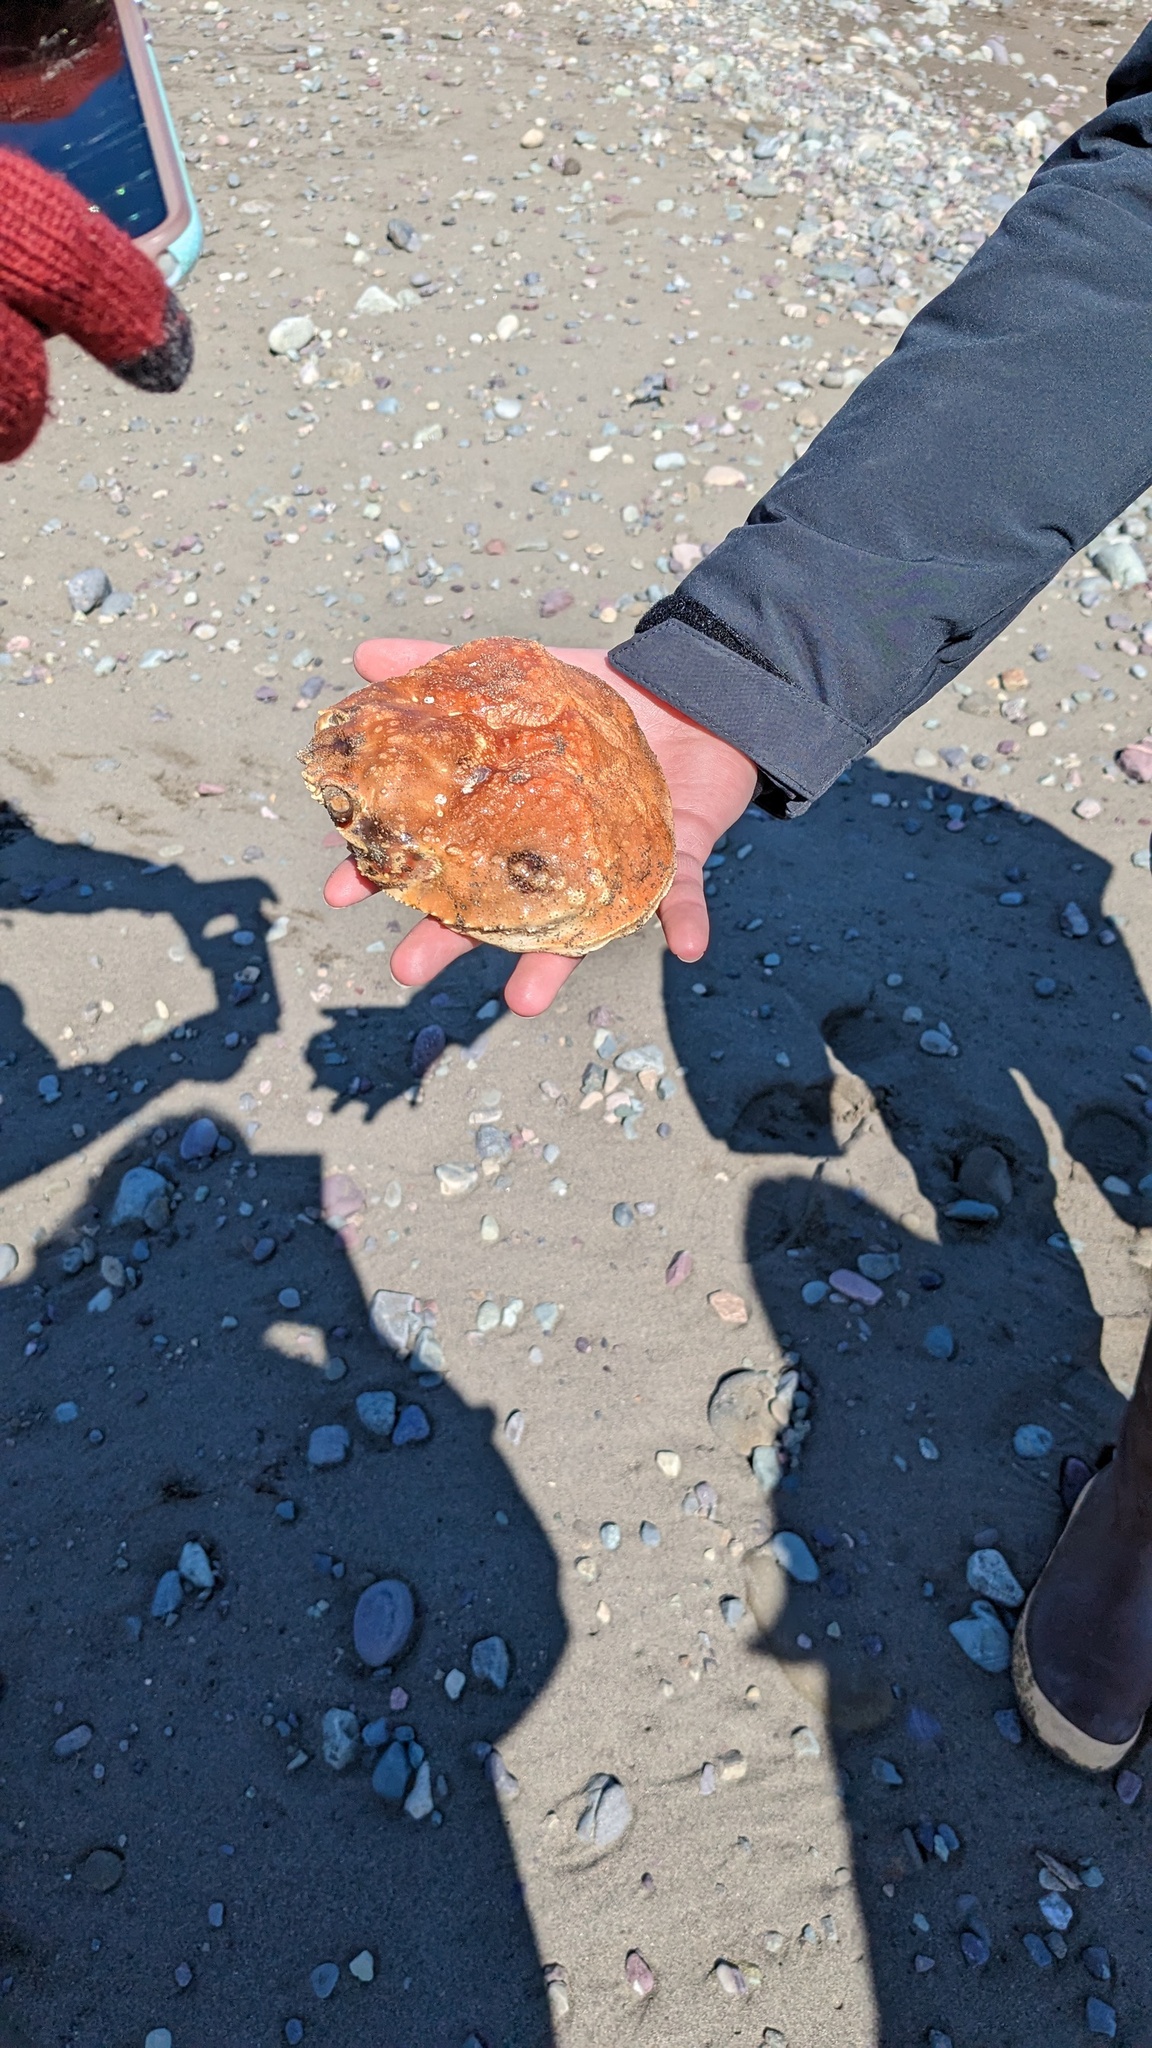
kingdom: Animalia
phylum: Arthropoda
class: Malacostraca
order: Decapoda
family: Oregoniidae
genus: Chionoecetes
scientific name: Chionoecetes opilio
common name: Atlantic snow crab
